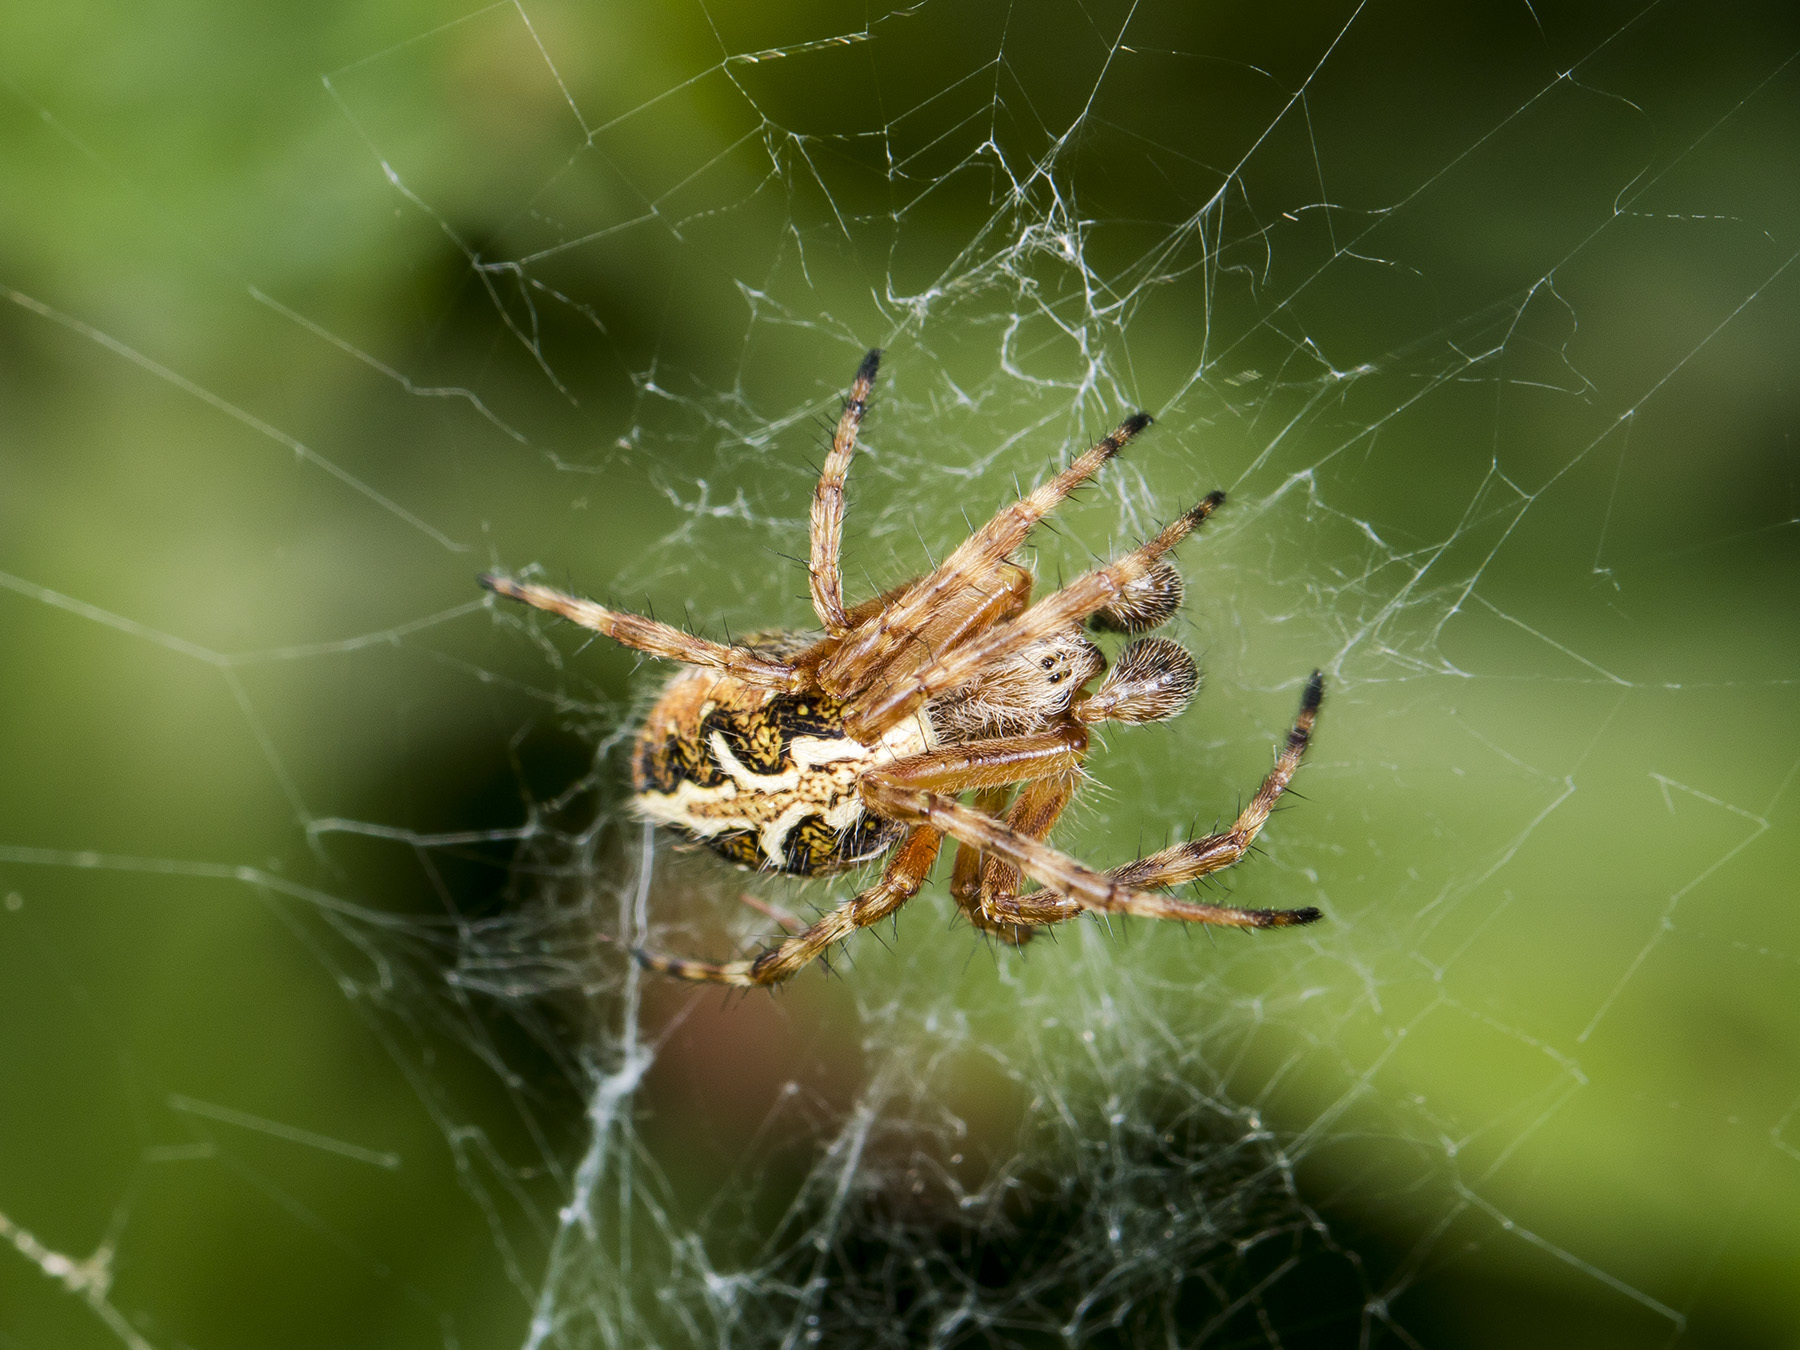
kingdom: Animalia
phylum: Arthropoda
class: Arachnida
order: Araneae
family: Araneidae
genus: Aculepeira
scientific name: Aculepeira packardi
